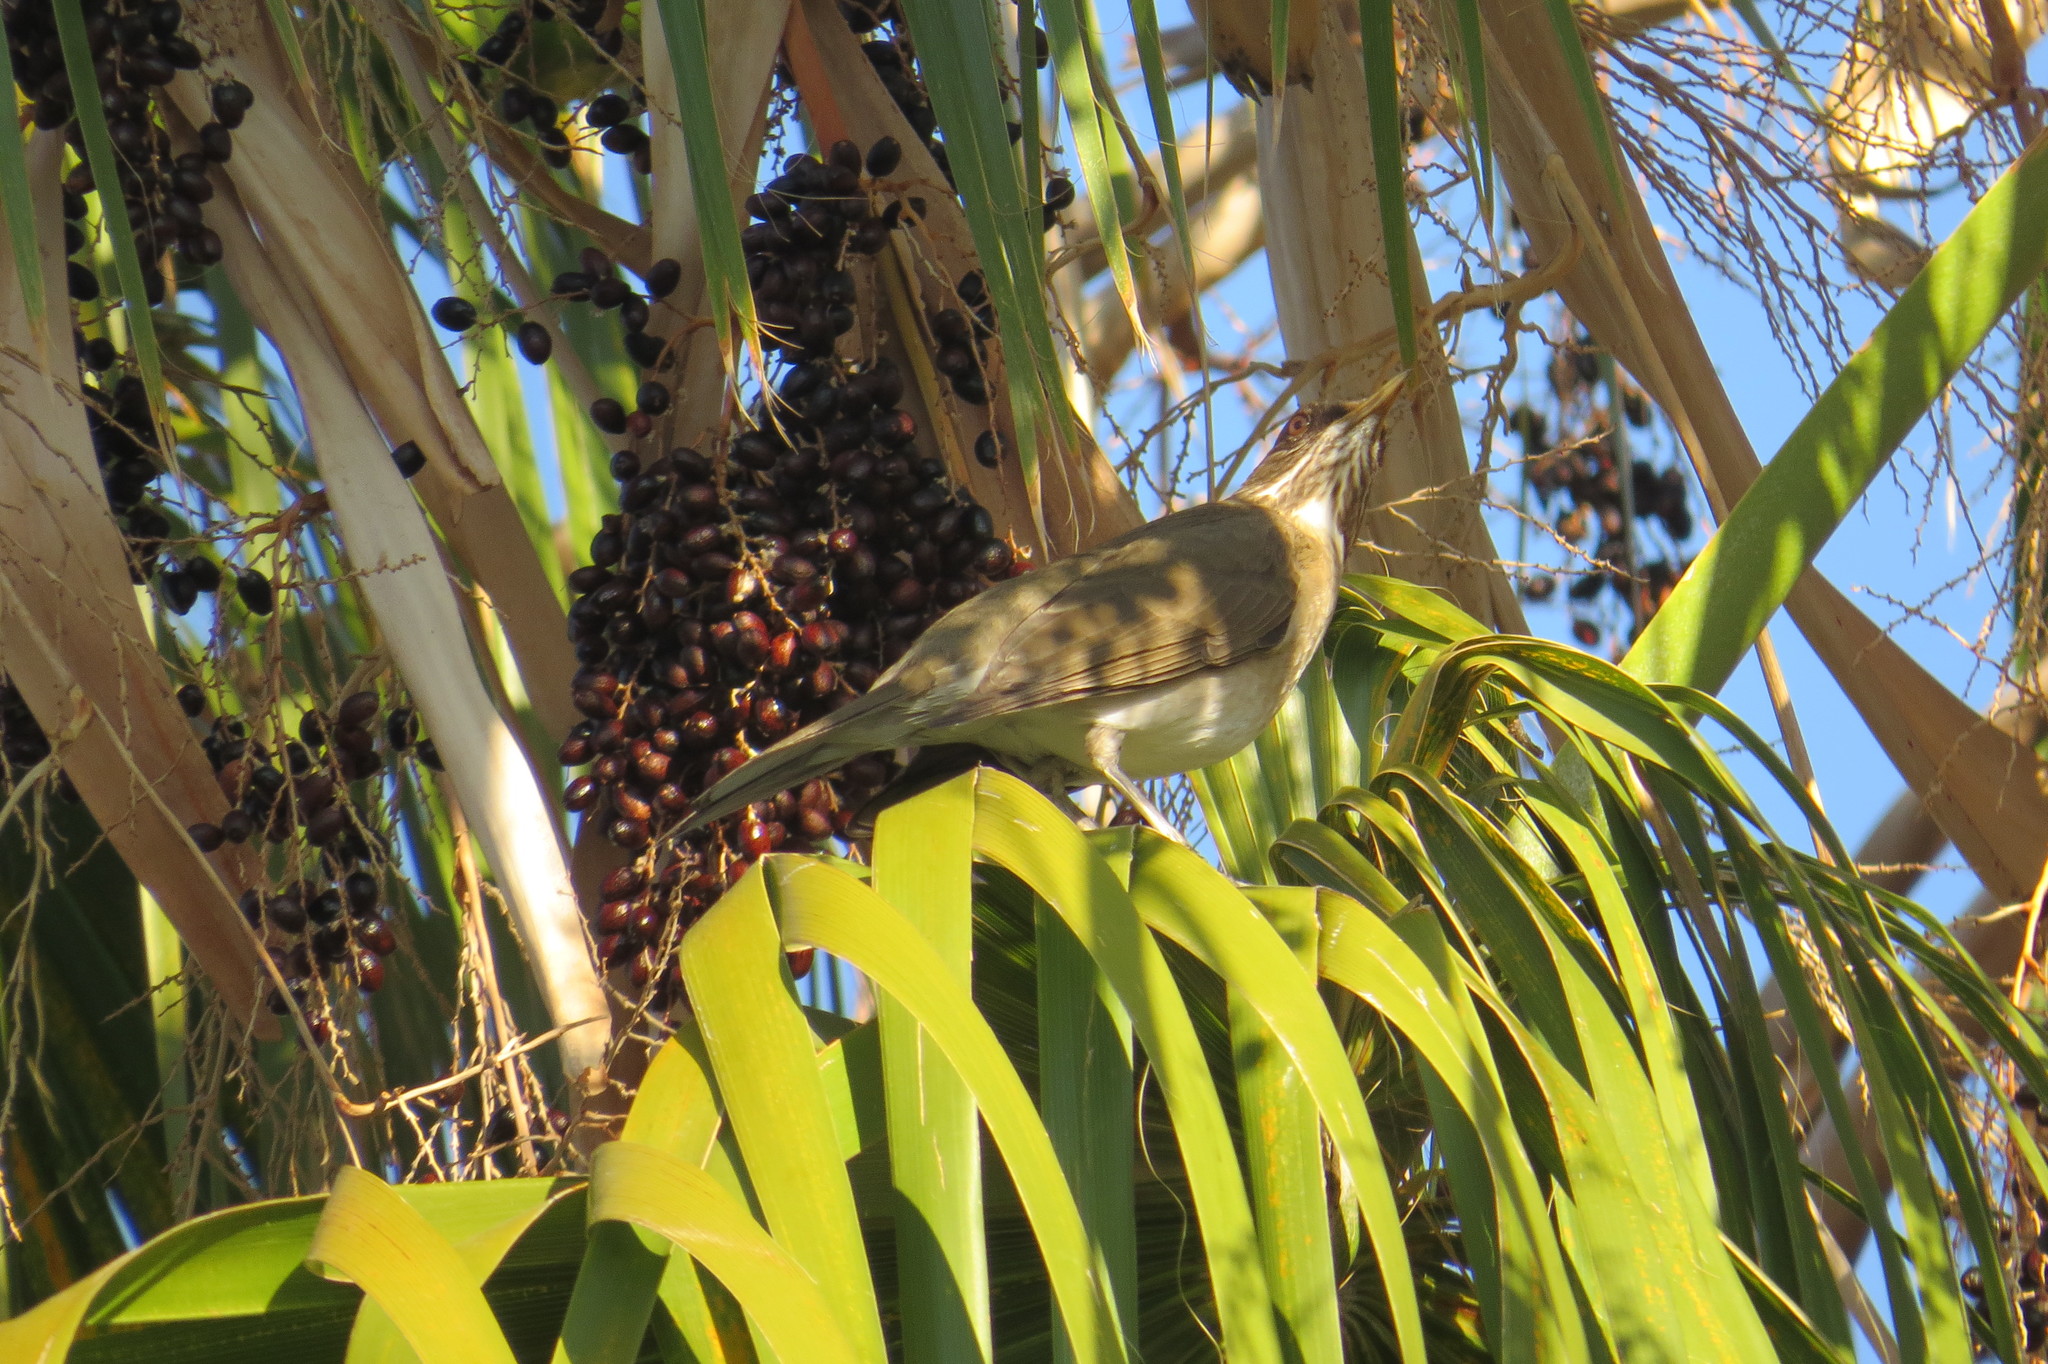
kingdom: Animalia
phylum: Chordata
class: Aves
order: Passeriformes
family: Turdidae
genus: Turdus
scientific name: Turdus amaurochalinus
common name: Creamy-bellied thrush
